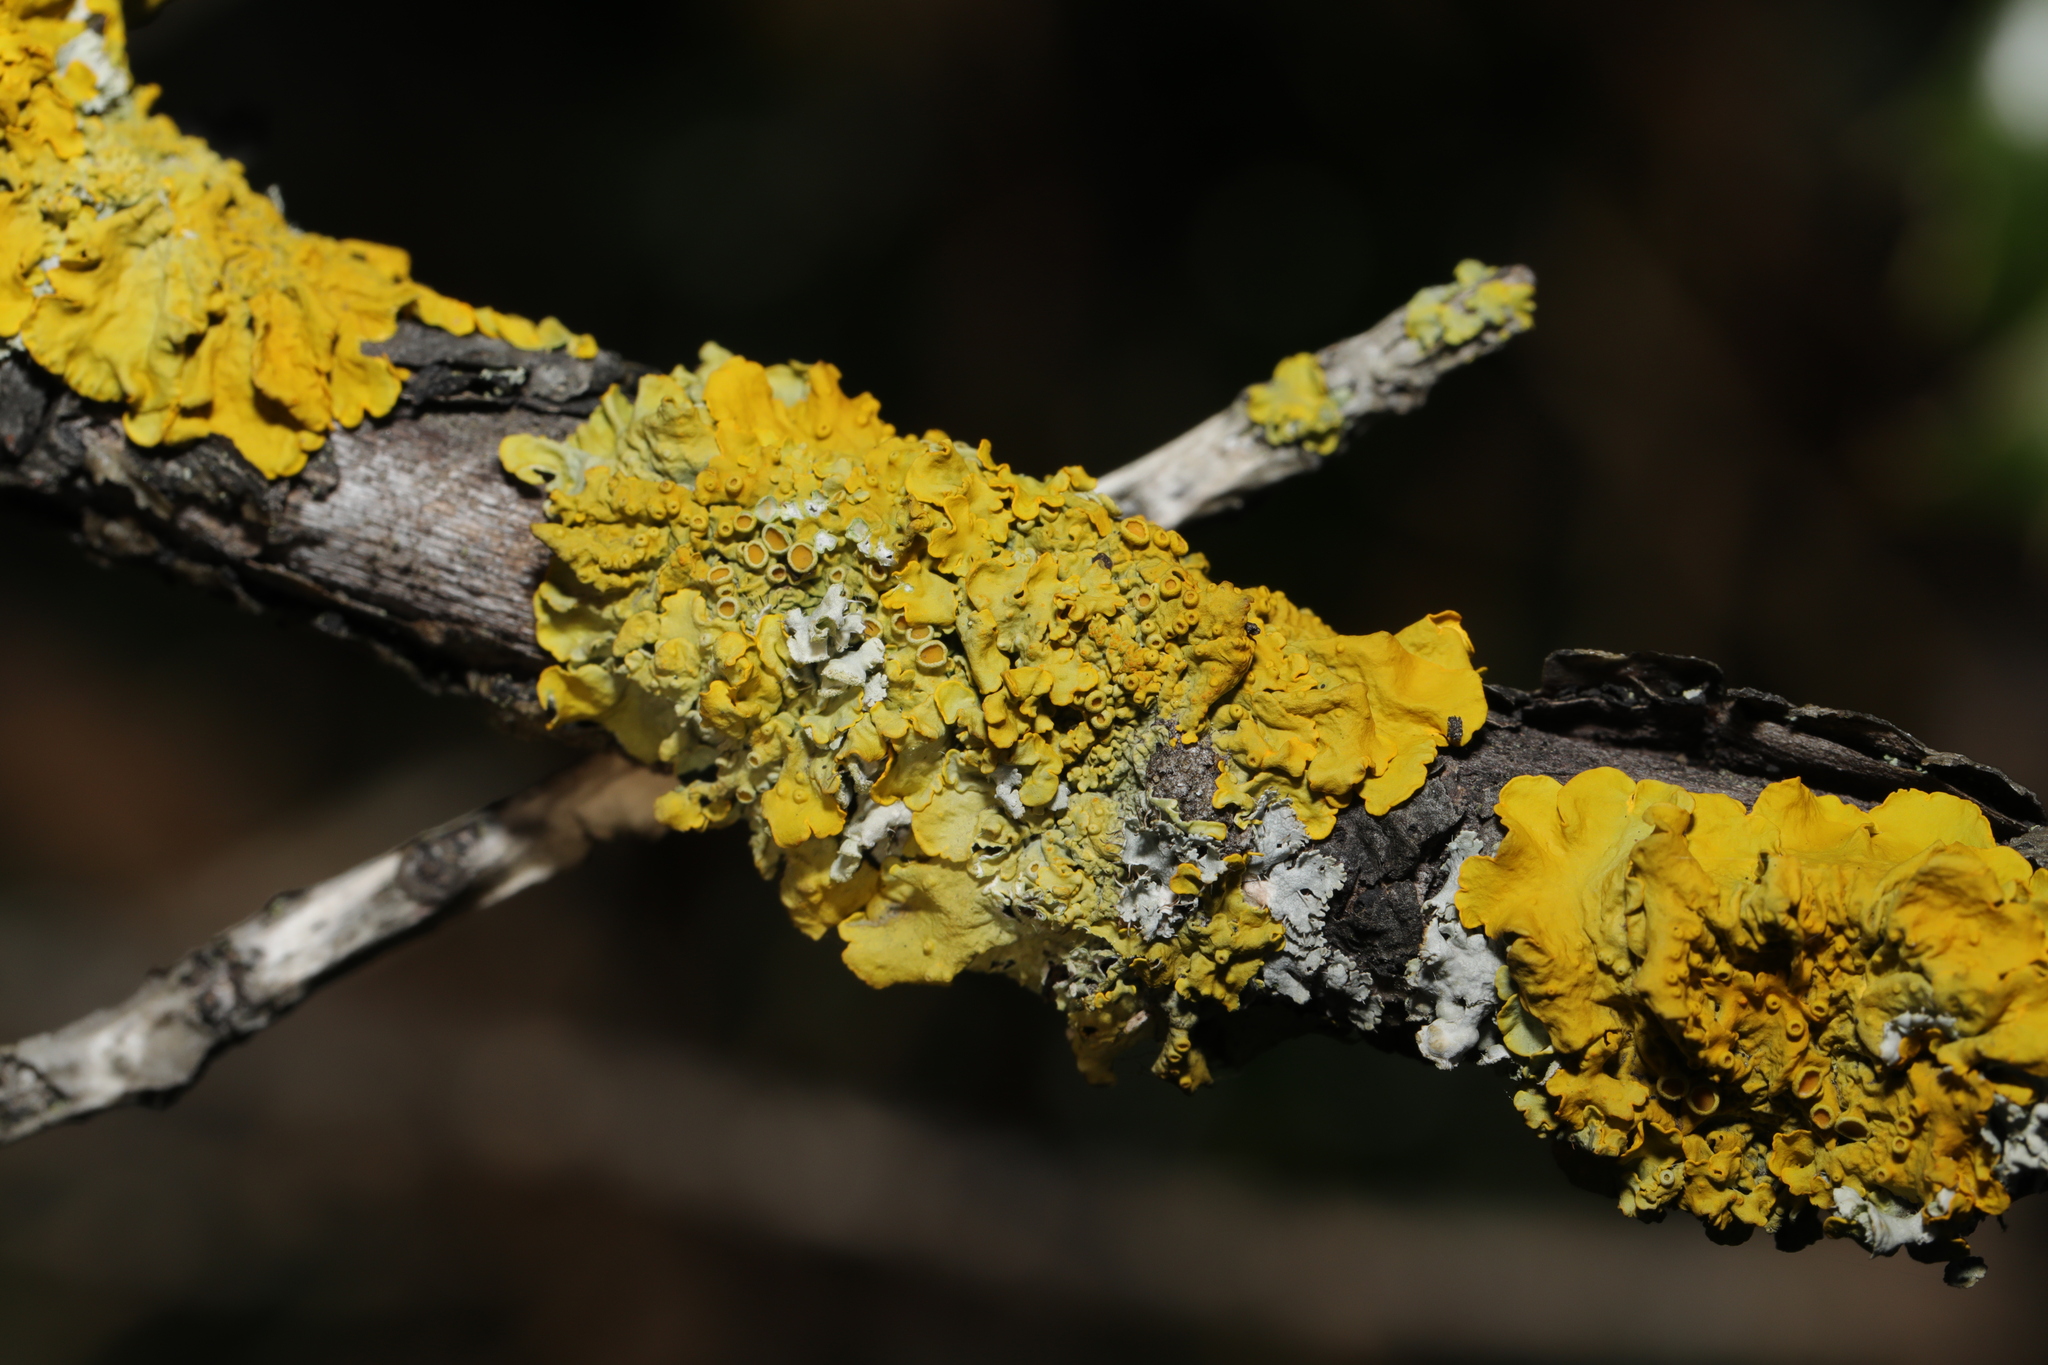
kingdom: Fungi
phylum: Ascomycota
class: Lecanoromycetes
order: Teloschistales
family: Teloschistaceae
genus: Xanthoria
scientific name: Xanthoria parietina
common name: Common orange lichen
